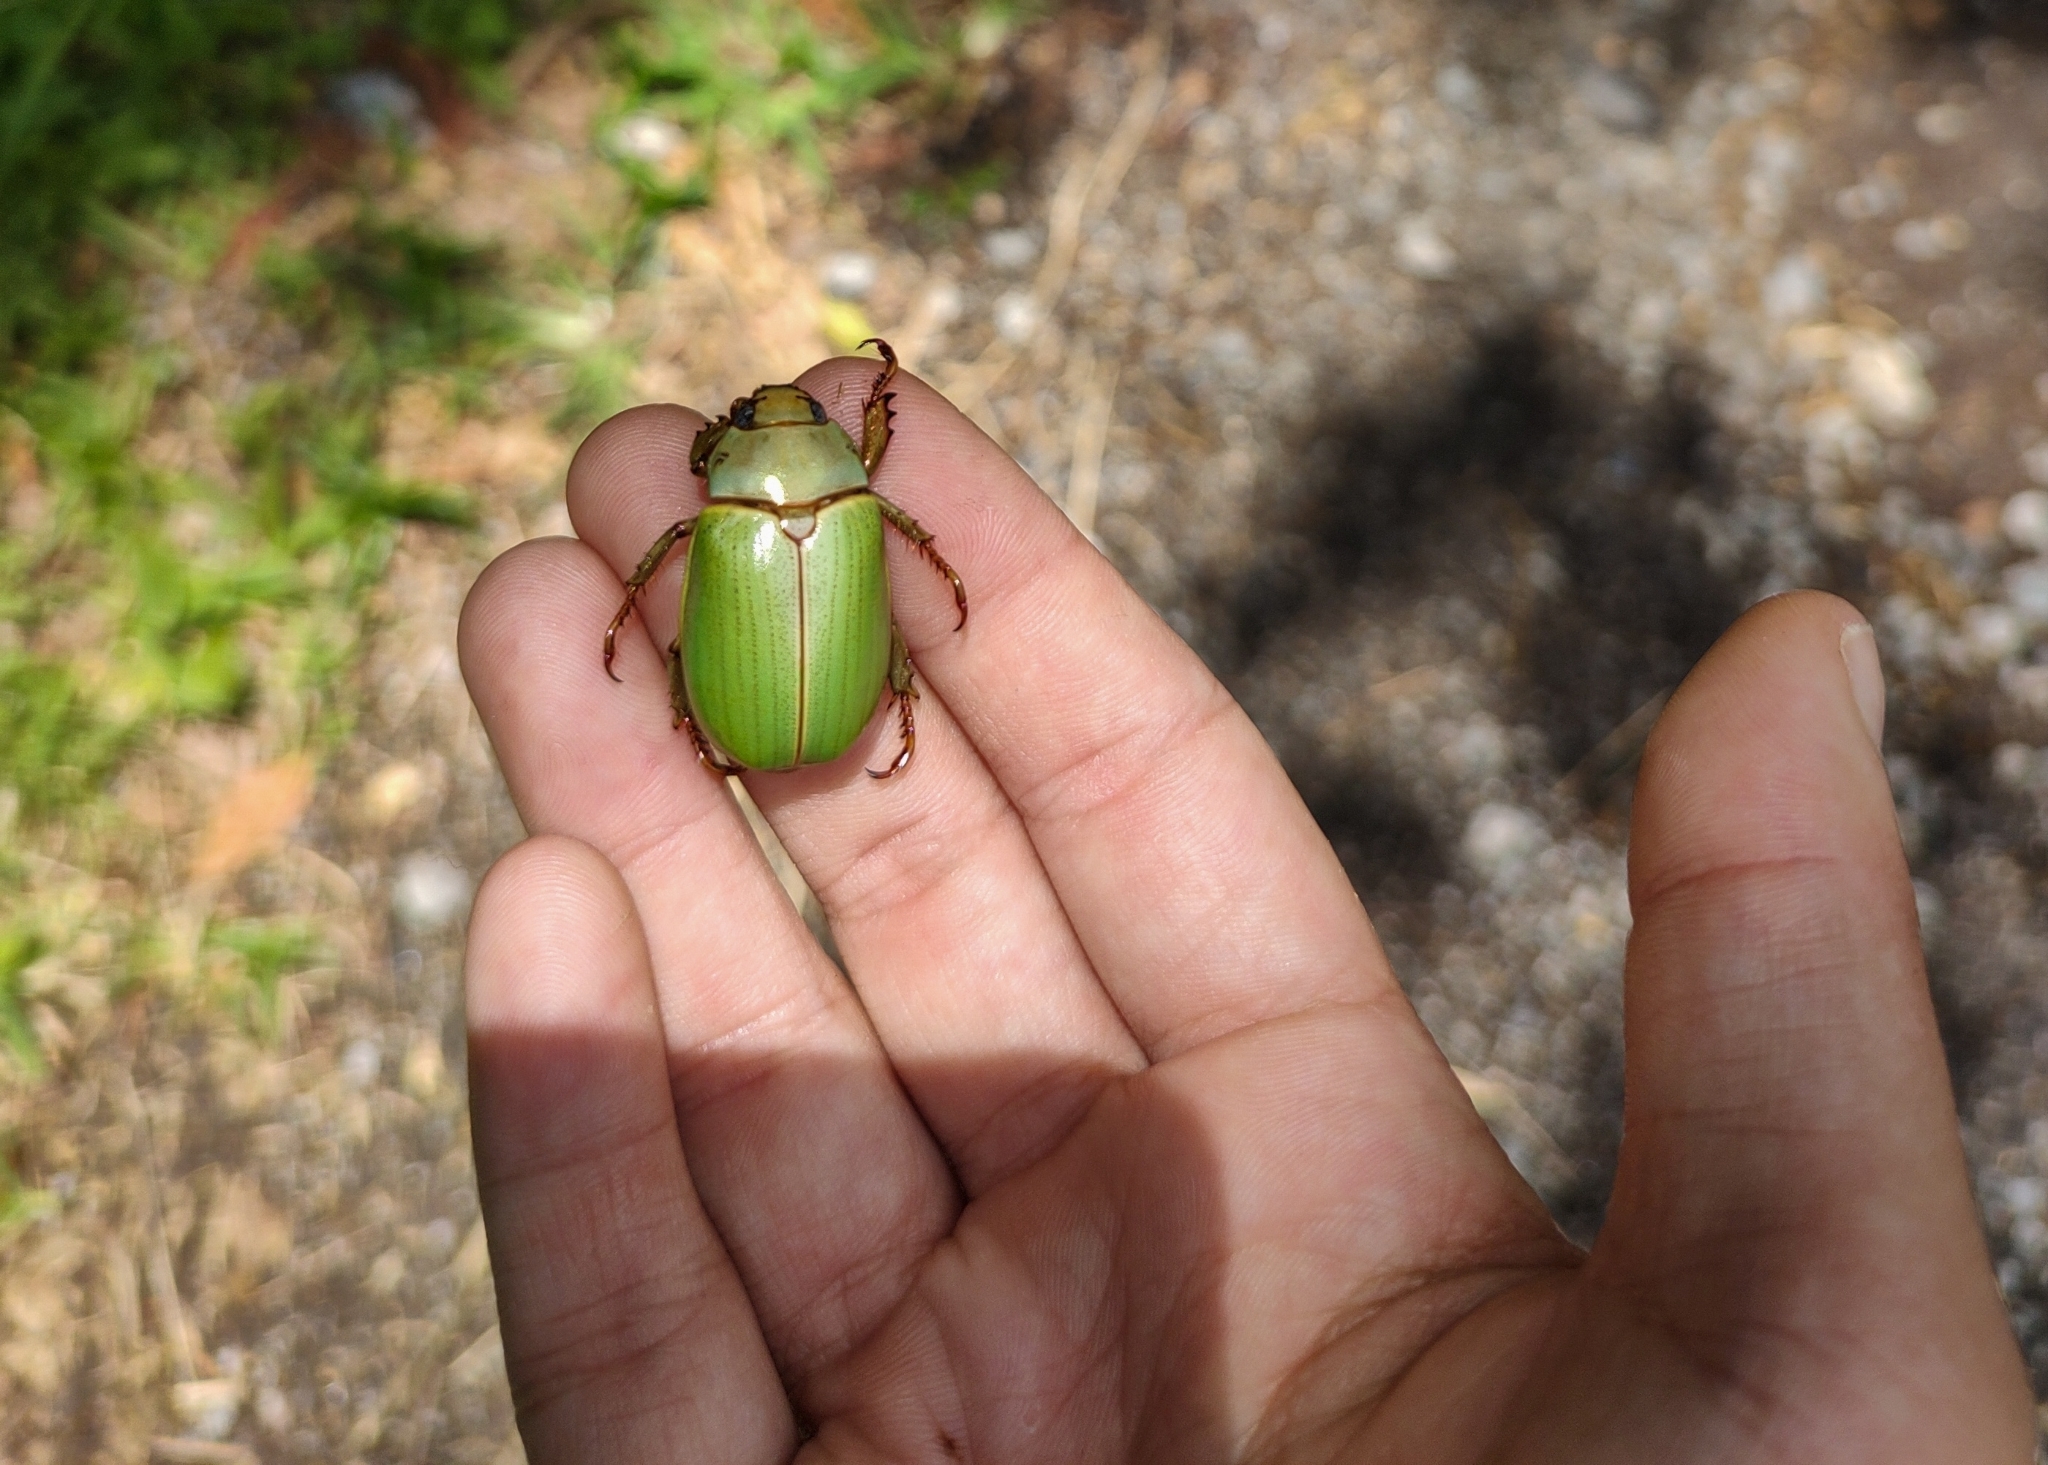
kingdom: Animalia
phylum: Arthropoda
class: Insecta
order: Coleoptera
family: Scarabaeidae
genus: Pelidnota
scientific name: Pelidnota semiaurata
